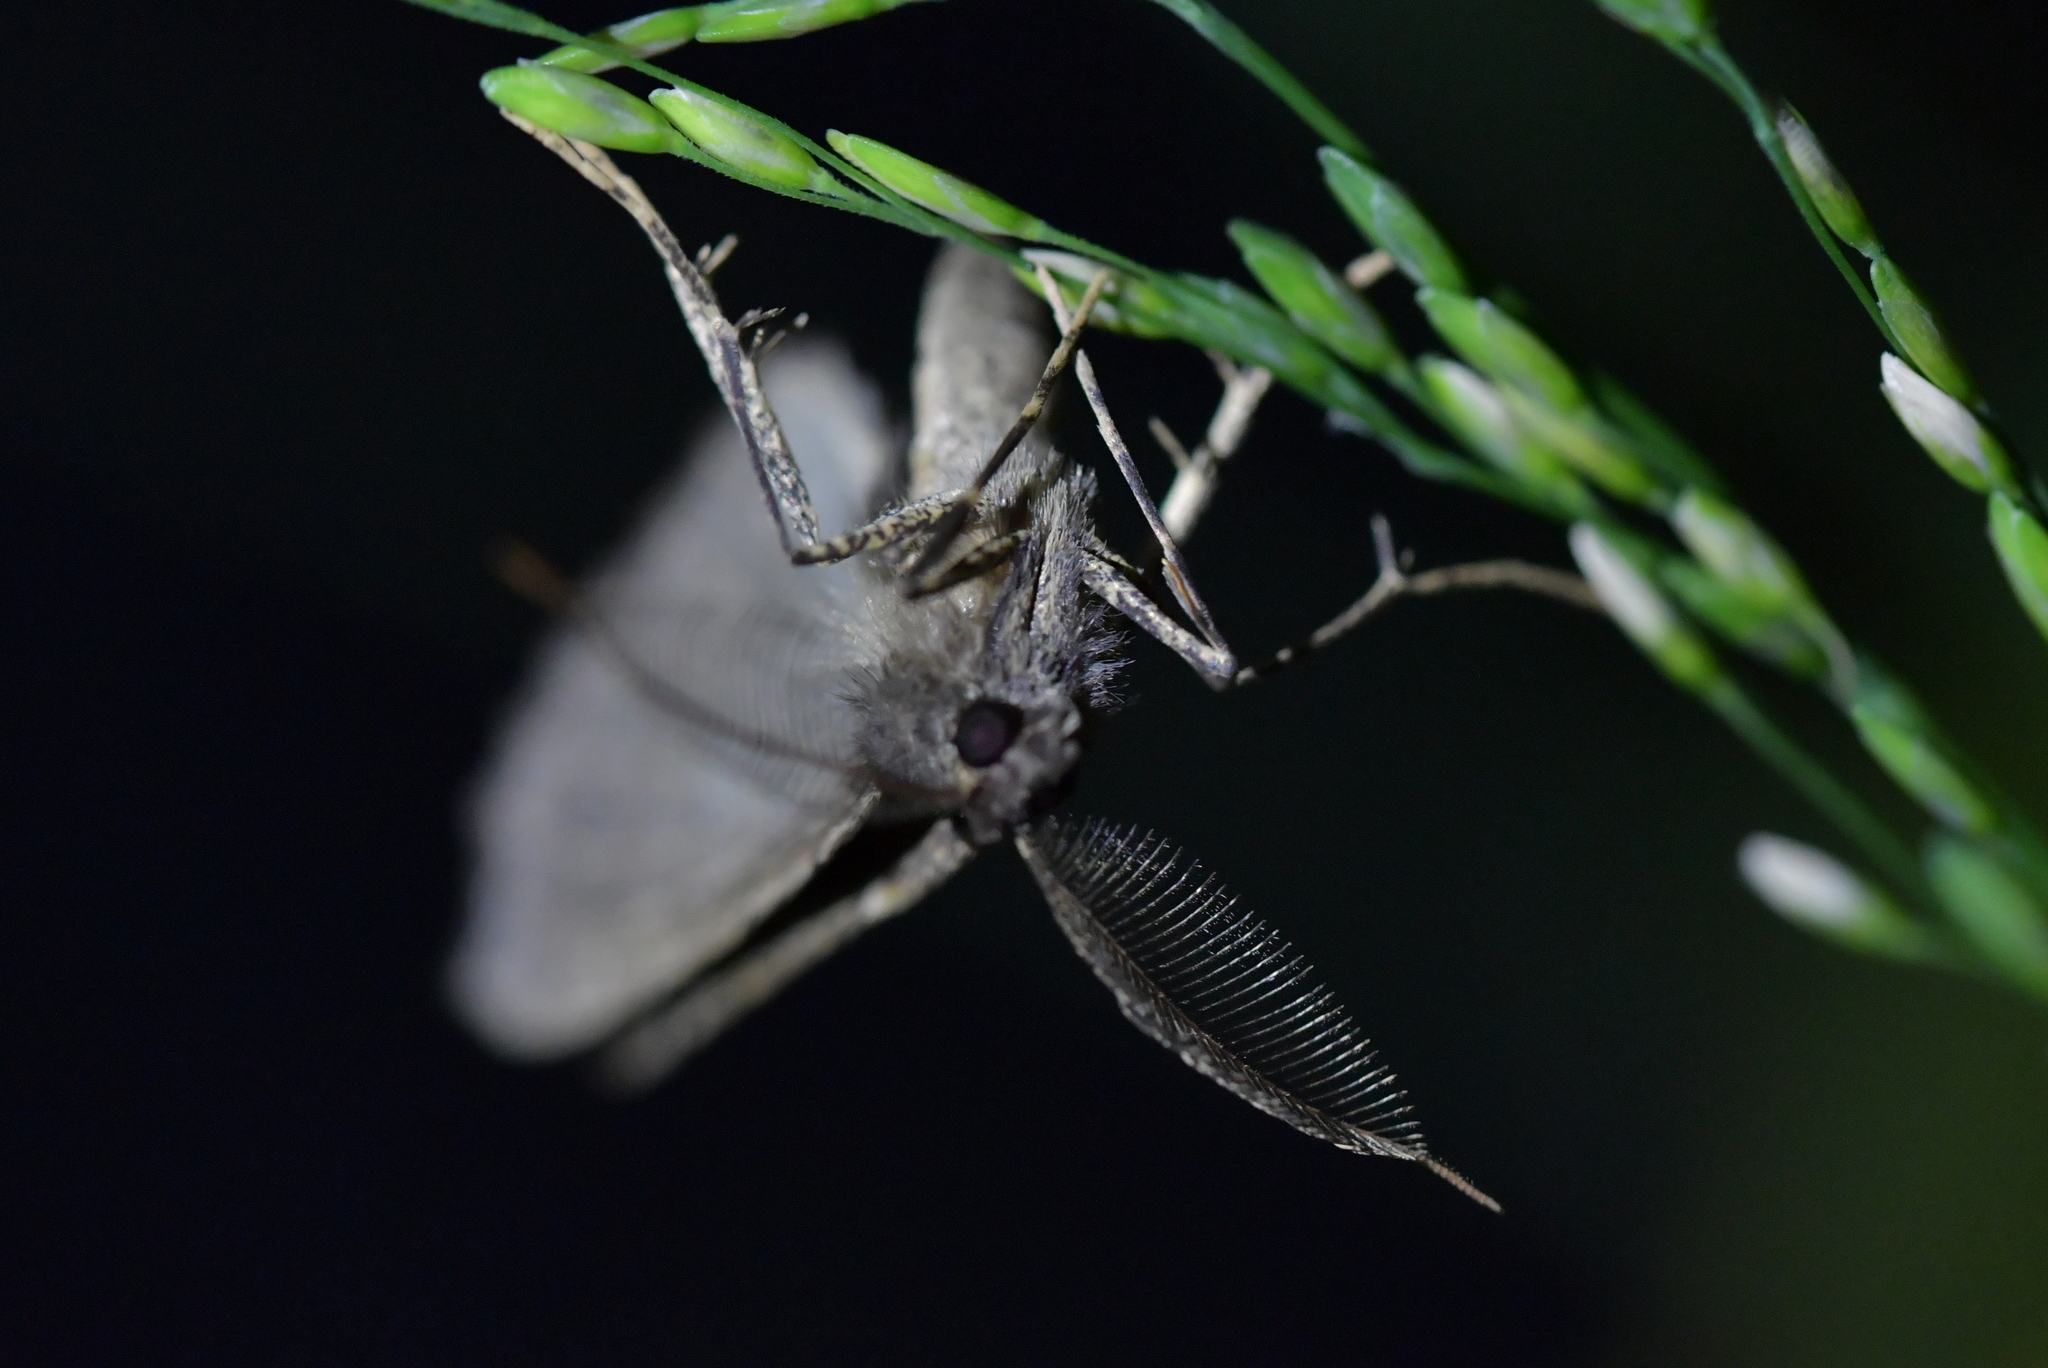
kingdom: Animalia
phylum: Arthropoda
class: Insecta
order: Lepidoptera
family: Geometridae
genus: Cleora
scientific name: Cleora scriptaria
